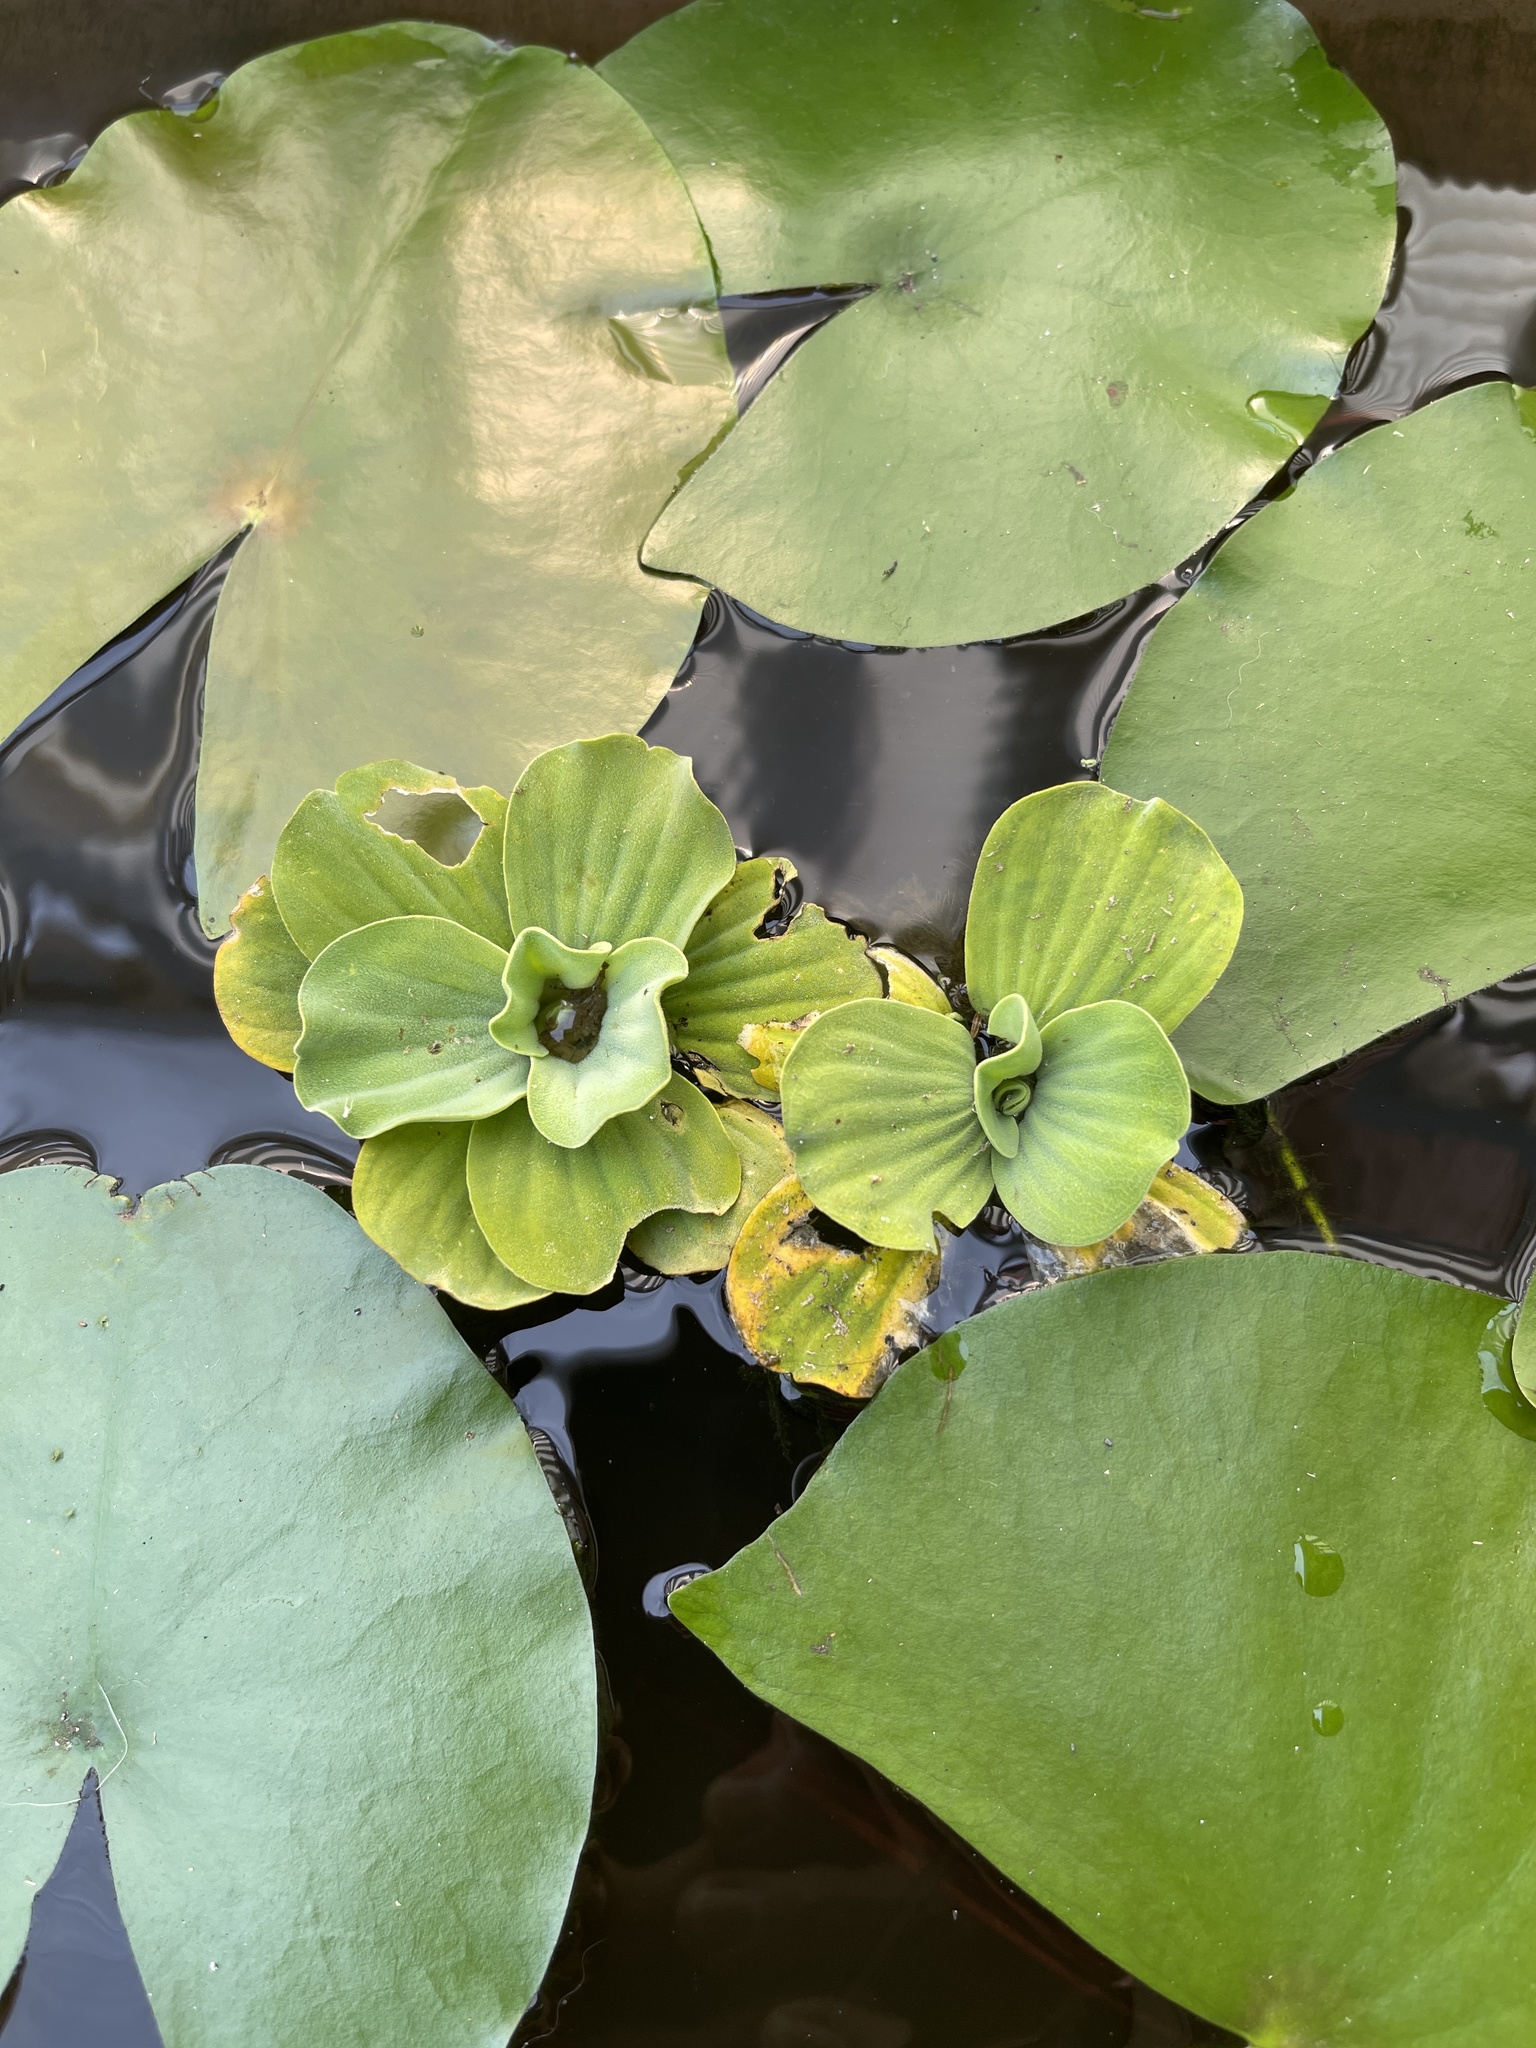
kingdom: Plantae
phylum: Tracheophyta
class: Liliopsida
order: Alismatales
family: Araceae
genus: Pistia
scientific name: Pistia stratiotes
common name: Water lettuce
